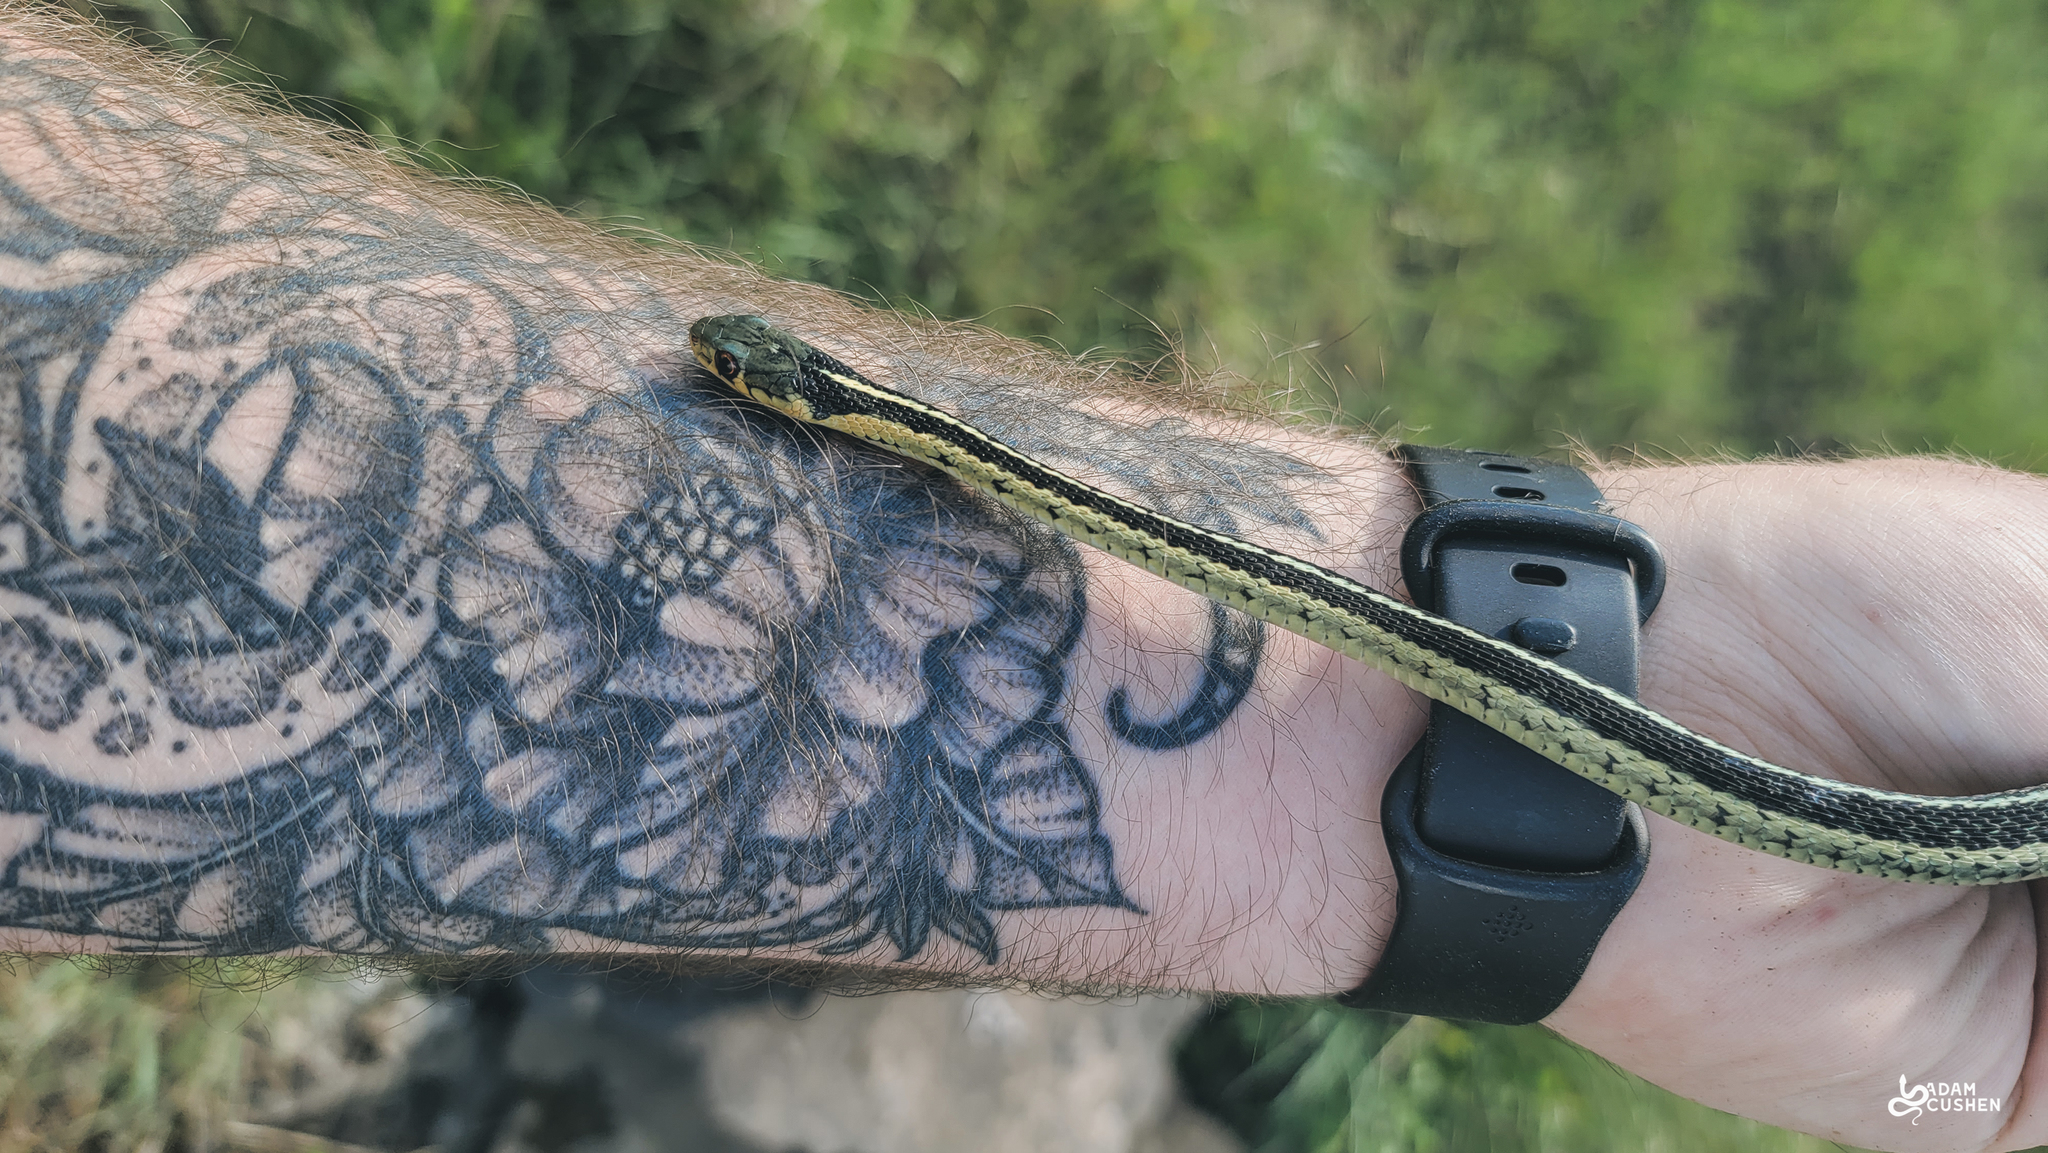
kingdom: Animalia
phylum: Chordata
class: Squamata
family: Colubridae
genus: Thamnophis
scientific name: Thamnophis sirtalis
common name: Common garter snake
